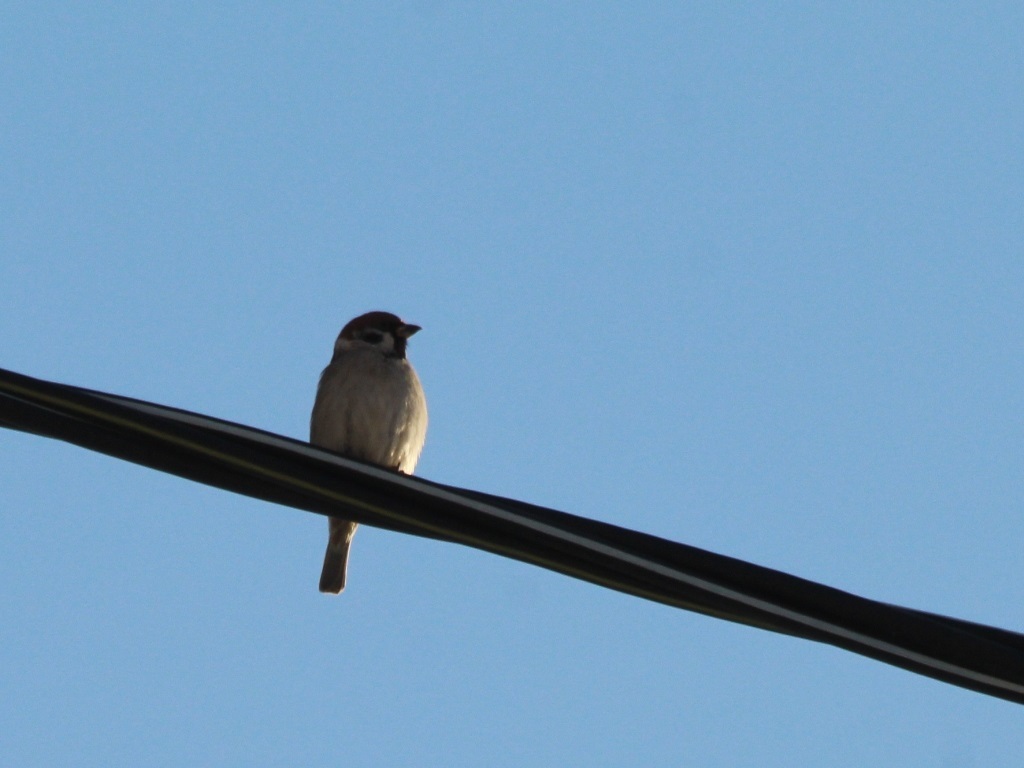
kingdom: Animalia
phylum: Chordata
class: Aves
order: Passeriformes
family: Passeridae
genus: Passer
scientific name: Passer montanus
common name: Eurasian tree sparrow
